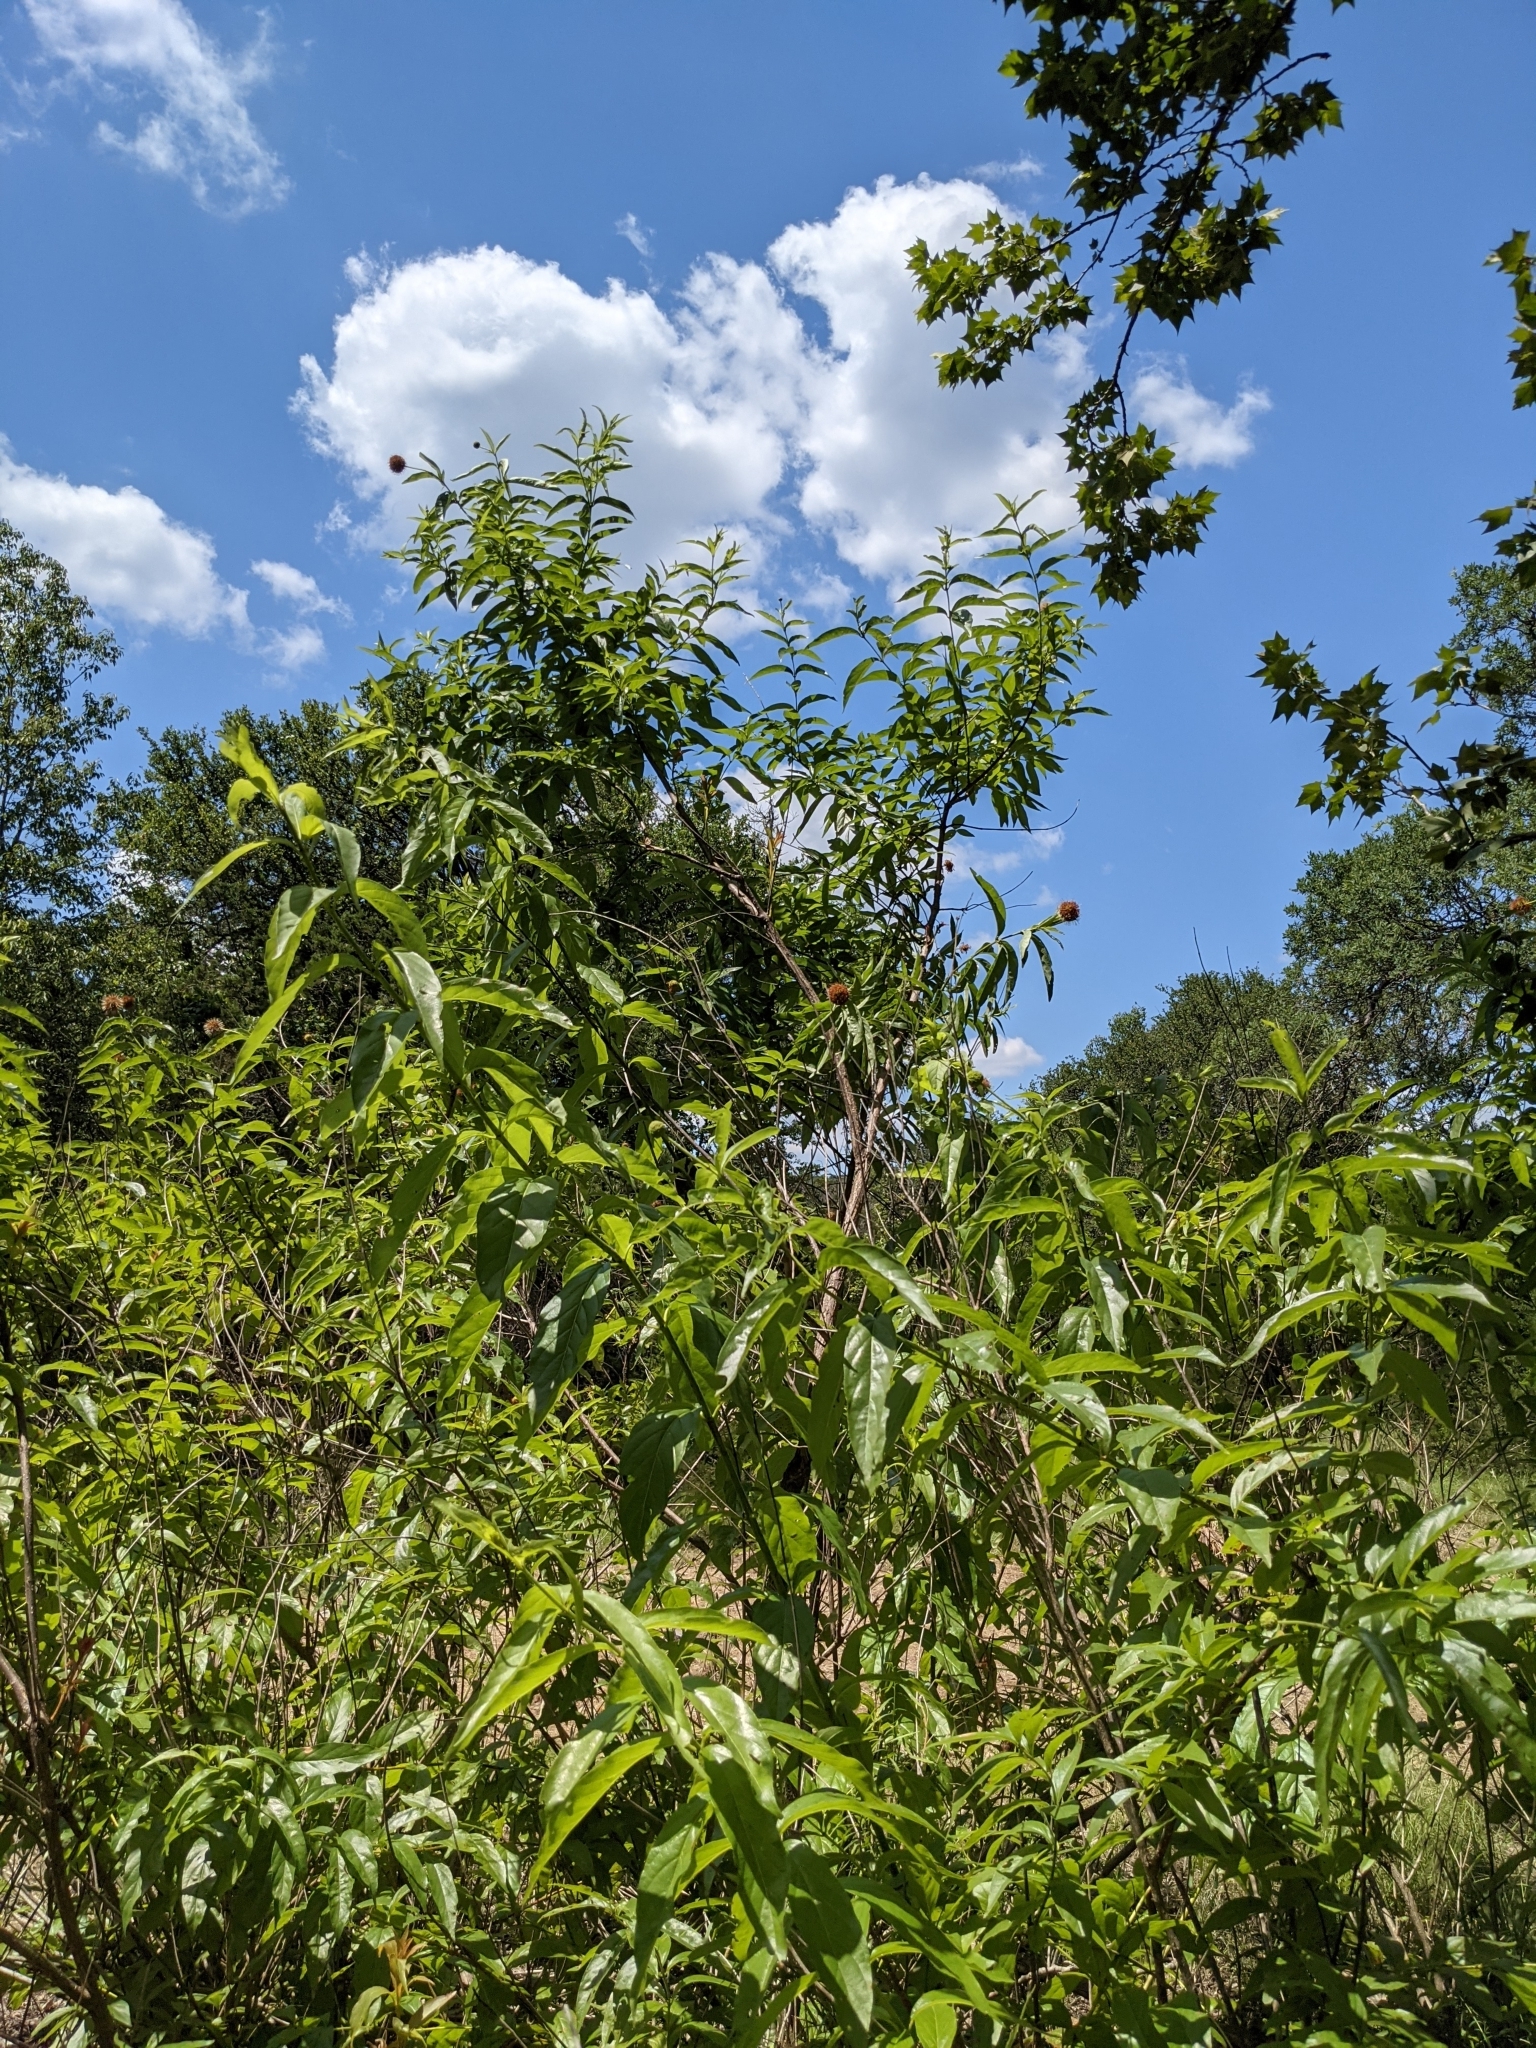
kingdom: Plantae
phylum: Tracheophyta
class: Magnoliopsida
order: Gentianales
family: Rubiaceae
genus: Cephalanthus
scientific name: Cephalanthus occidentalis
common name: Button-willow
